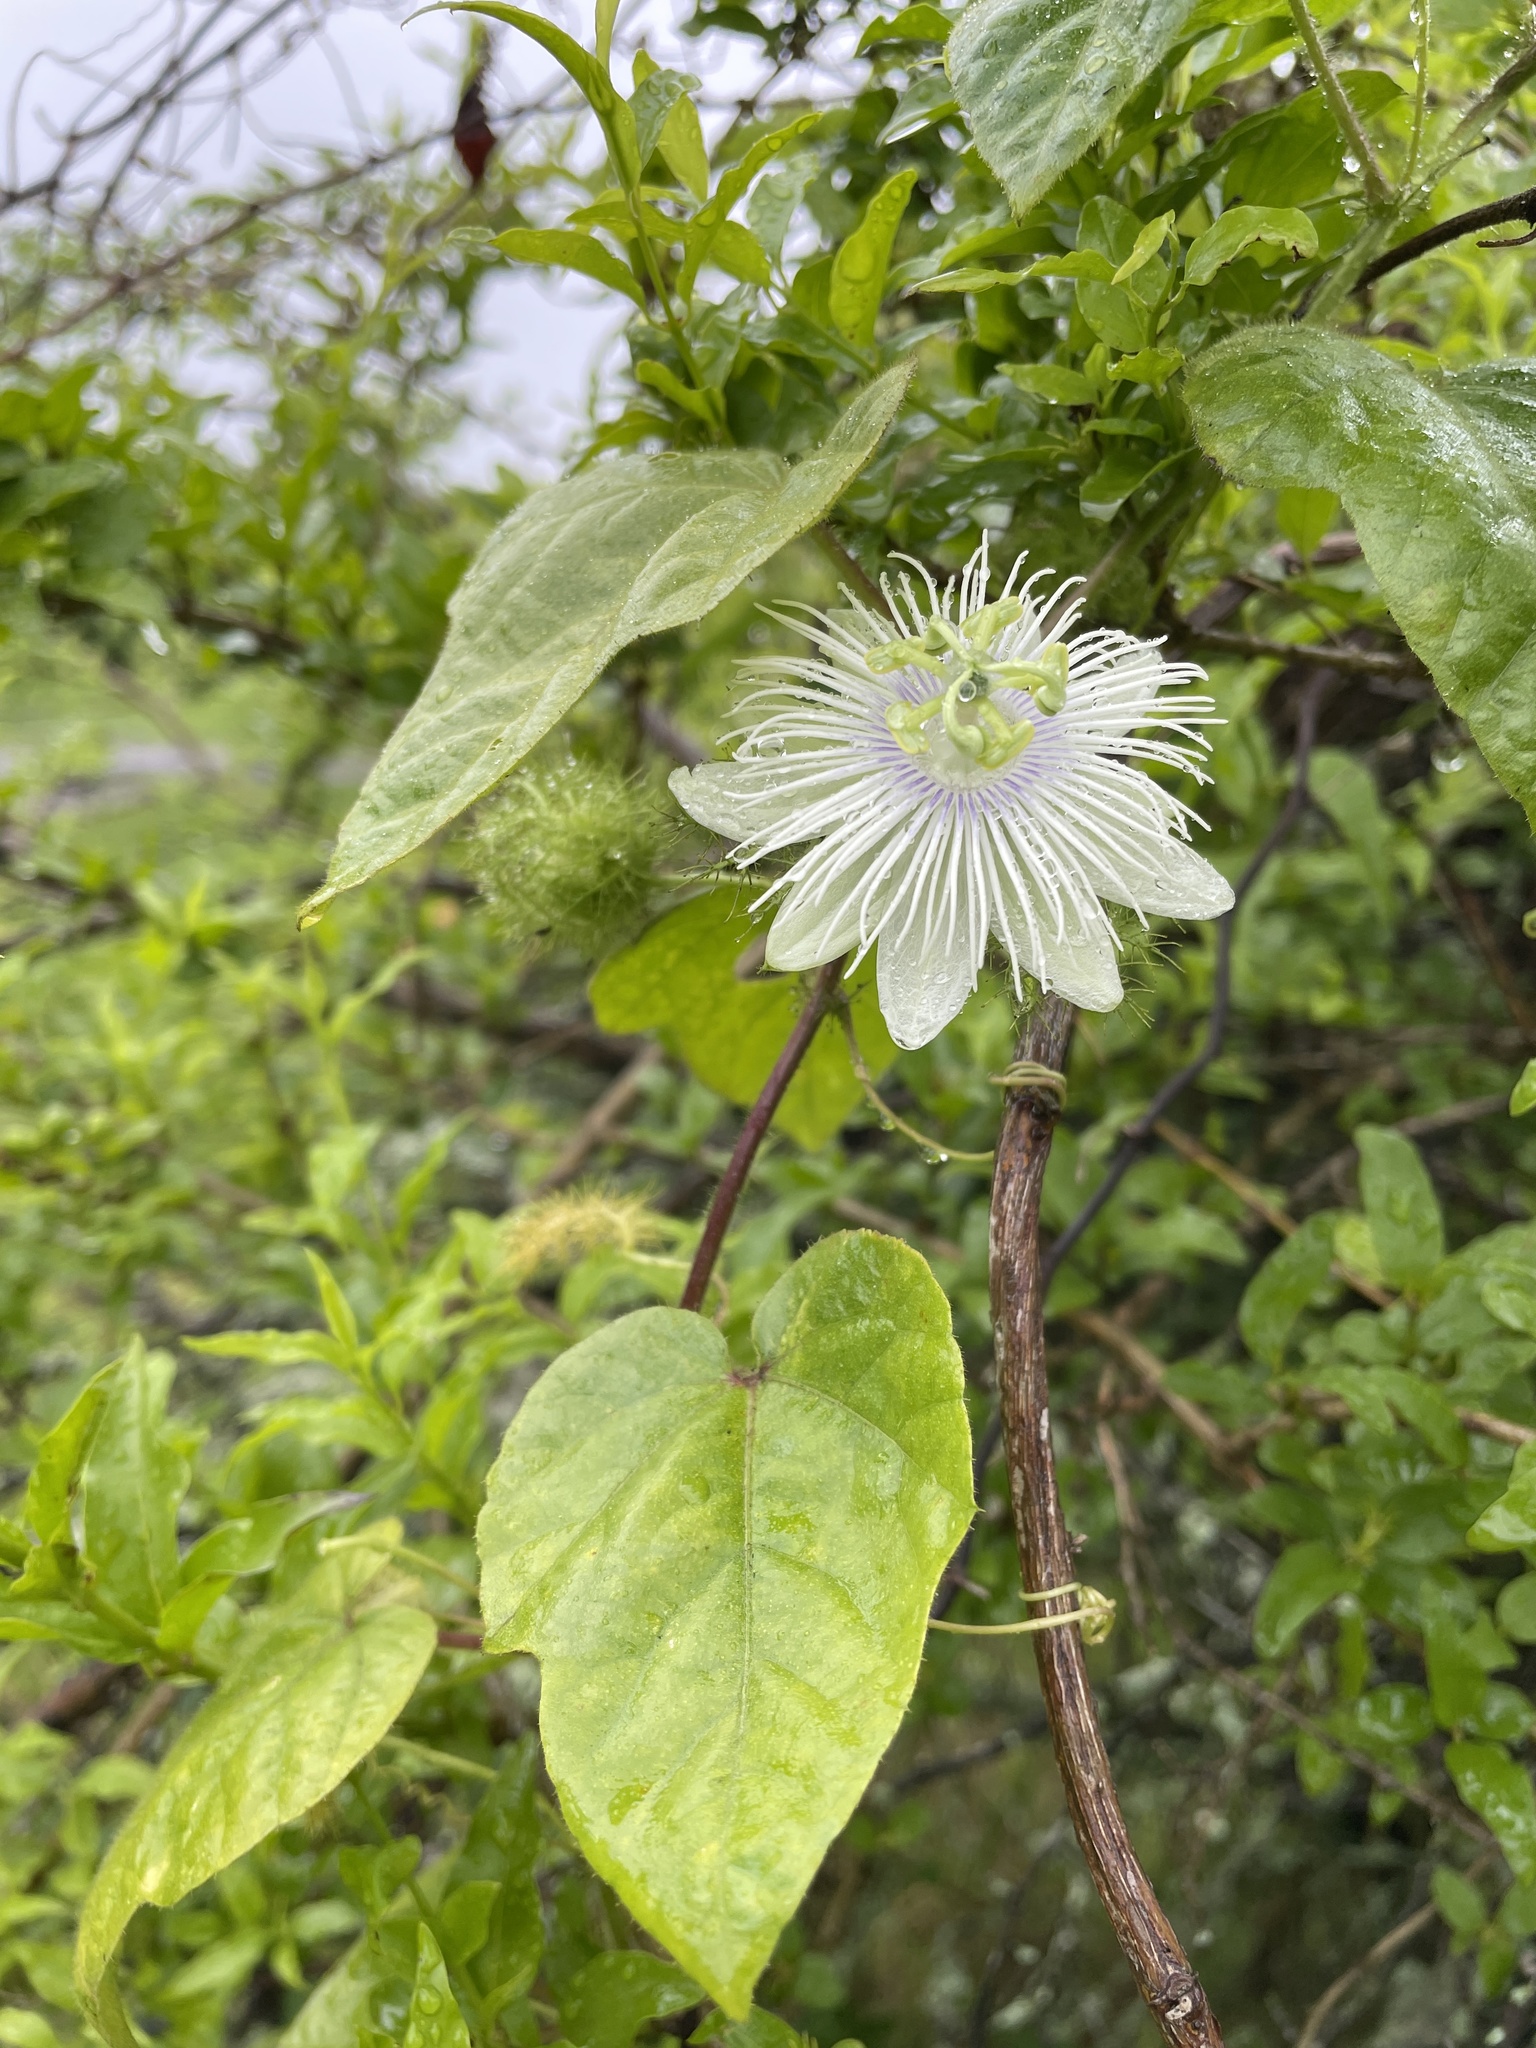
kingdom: Plantae
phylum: Tracheophyta
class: Magnoliopsida
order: Malpighiales
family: Passifloraceae
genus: Passiflora
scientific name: Passiflora foetida
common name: Fetid passionflower
